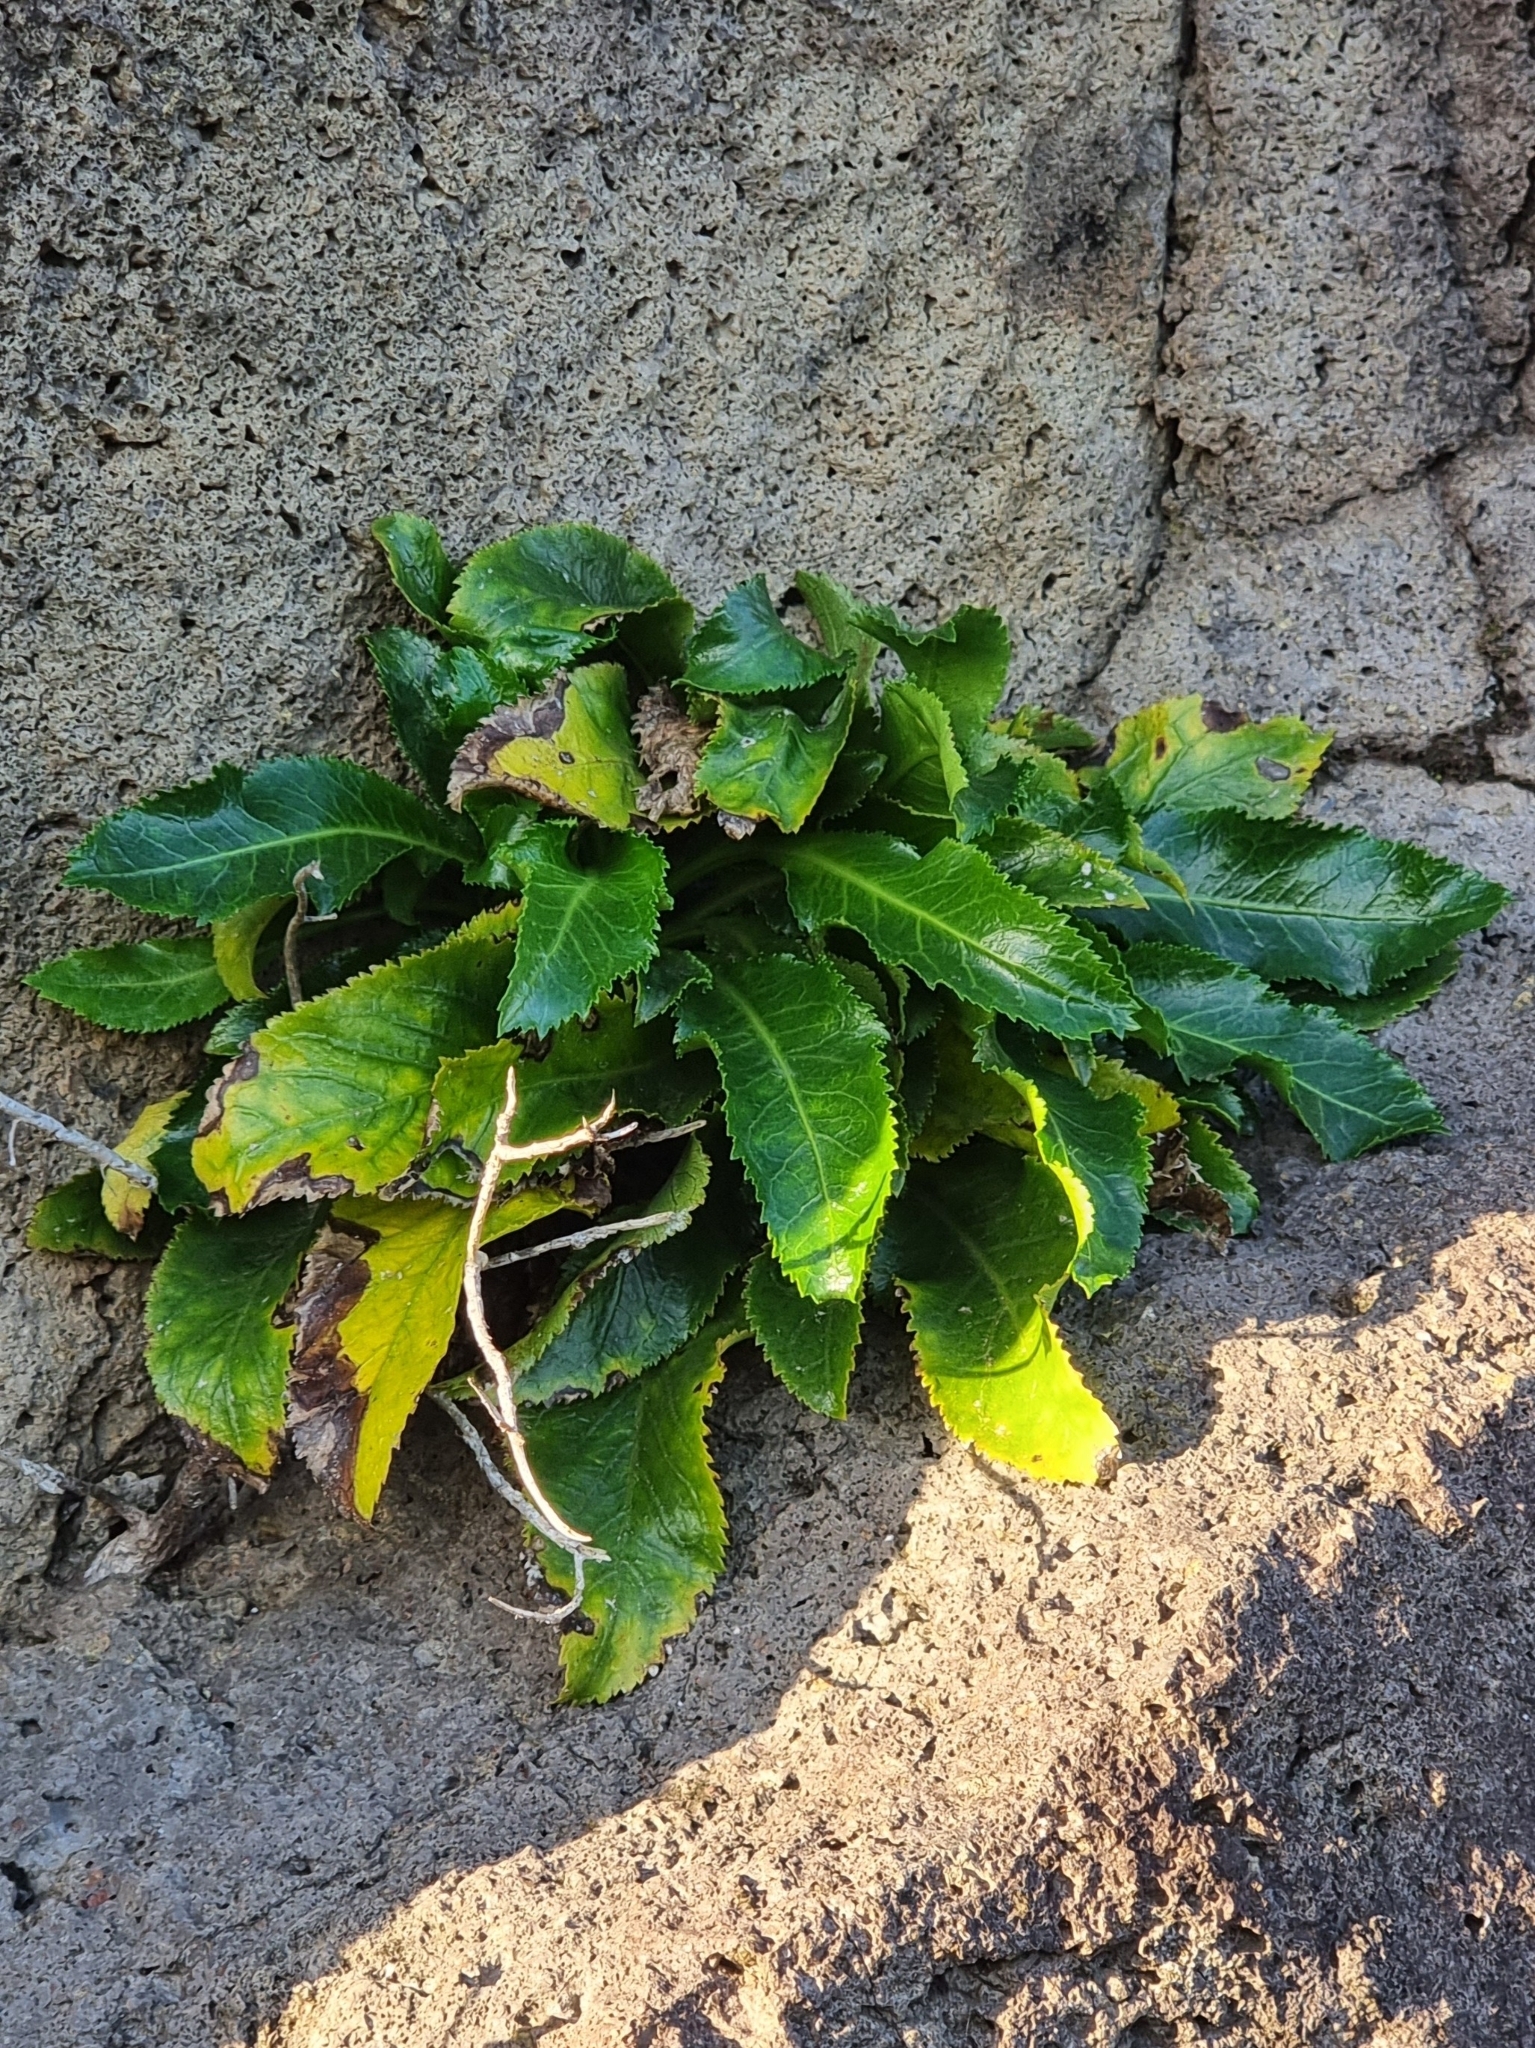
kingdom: Plantae
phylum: Tracheophyta
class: Magnoliopsida
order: Asterales
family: Campanulaceae
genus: Musschia
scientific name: Musschia aurea
